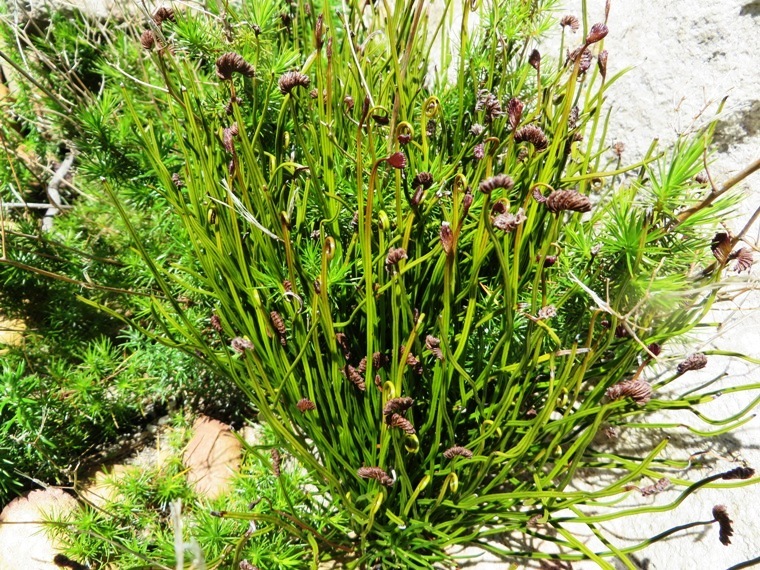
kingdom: Plantae
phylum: Tracheophyta
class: Polypodiopsida
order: Schizaeales
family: Schizaeaceae
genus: Schizaea
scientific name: Schizaea pectinata
